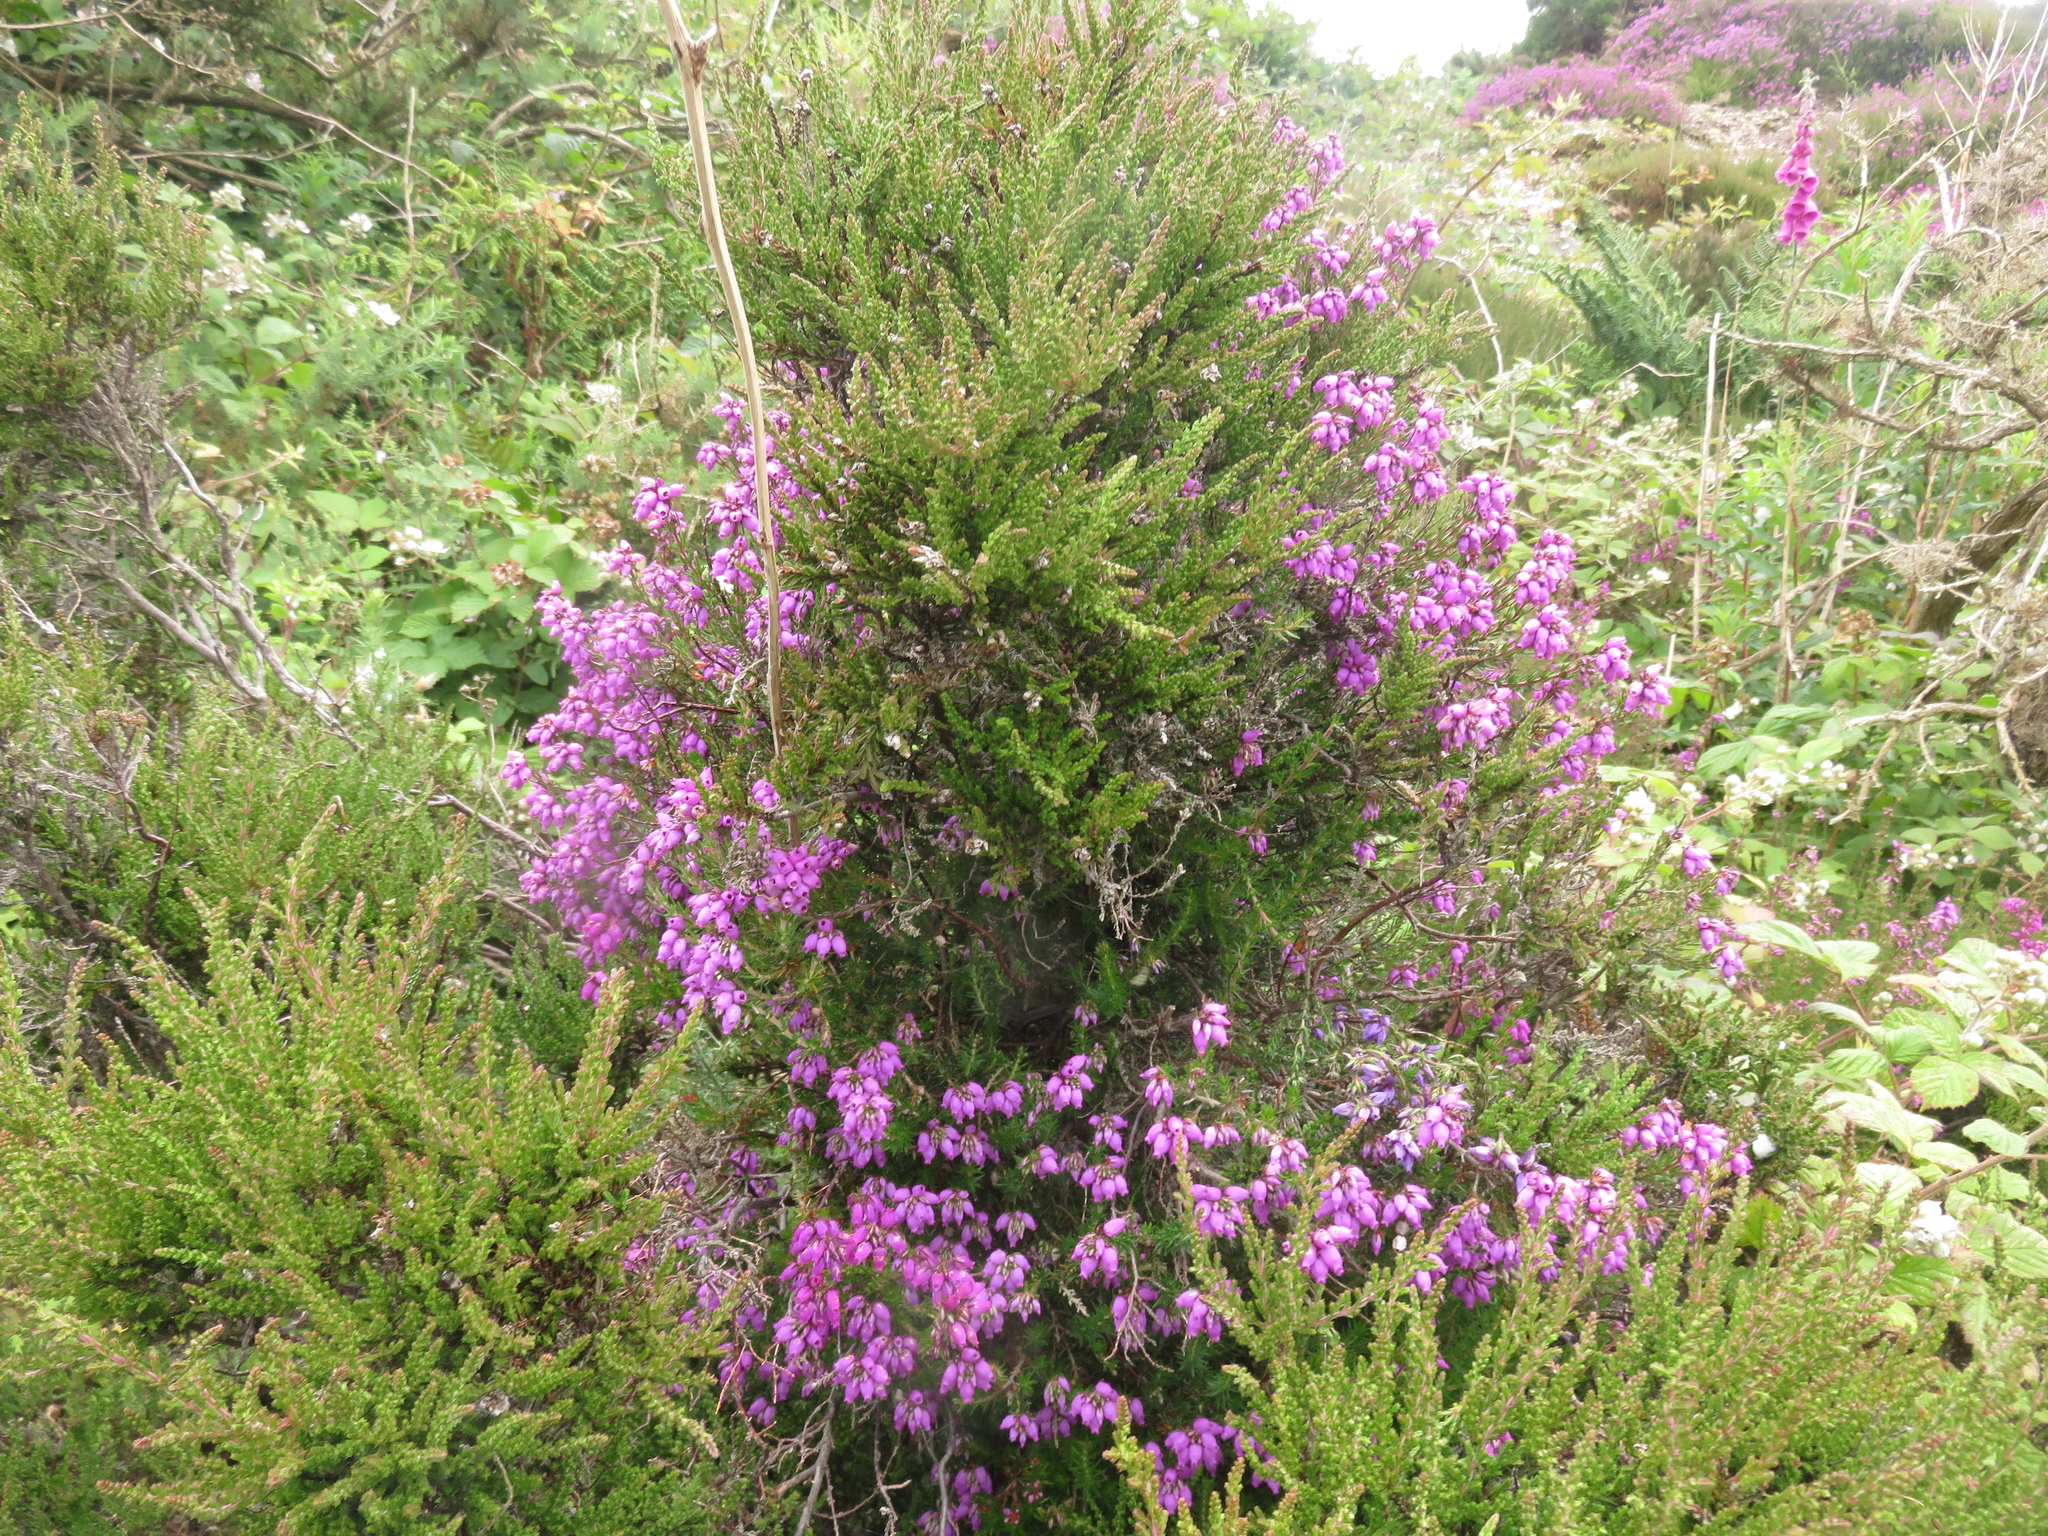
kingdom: Plantae
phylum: Tracheophyta
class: Magnoliopsida
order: Ericales
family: Ericaceae
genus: Erica
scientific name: Erica cinerea
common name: Bell heather
